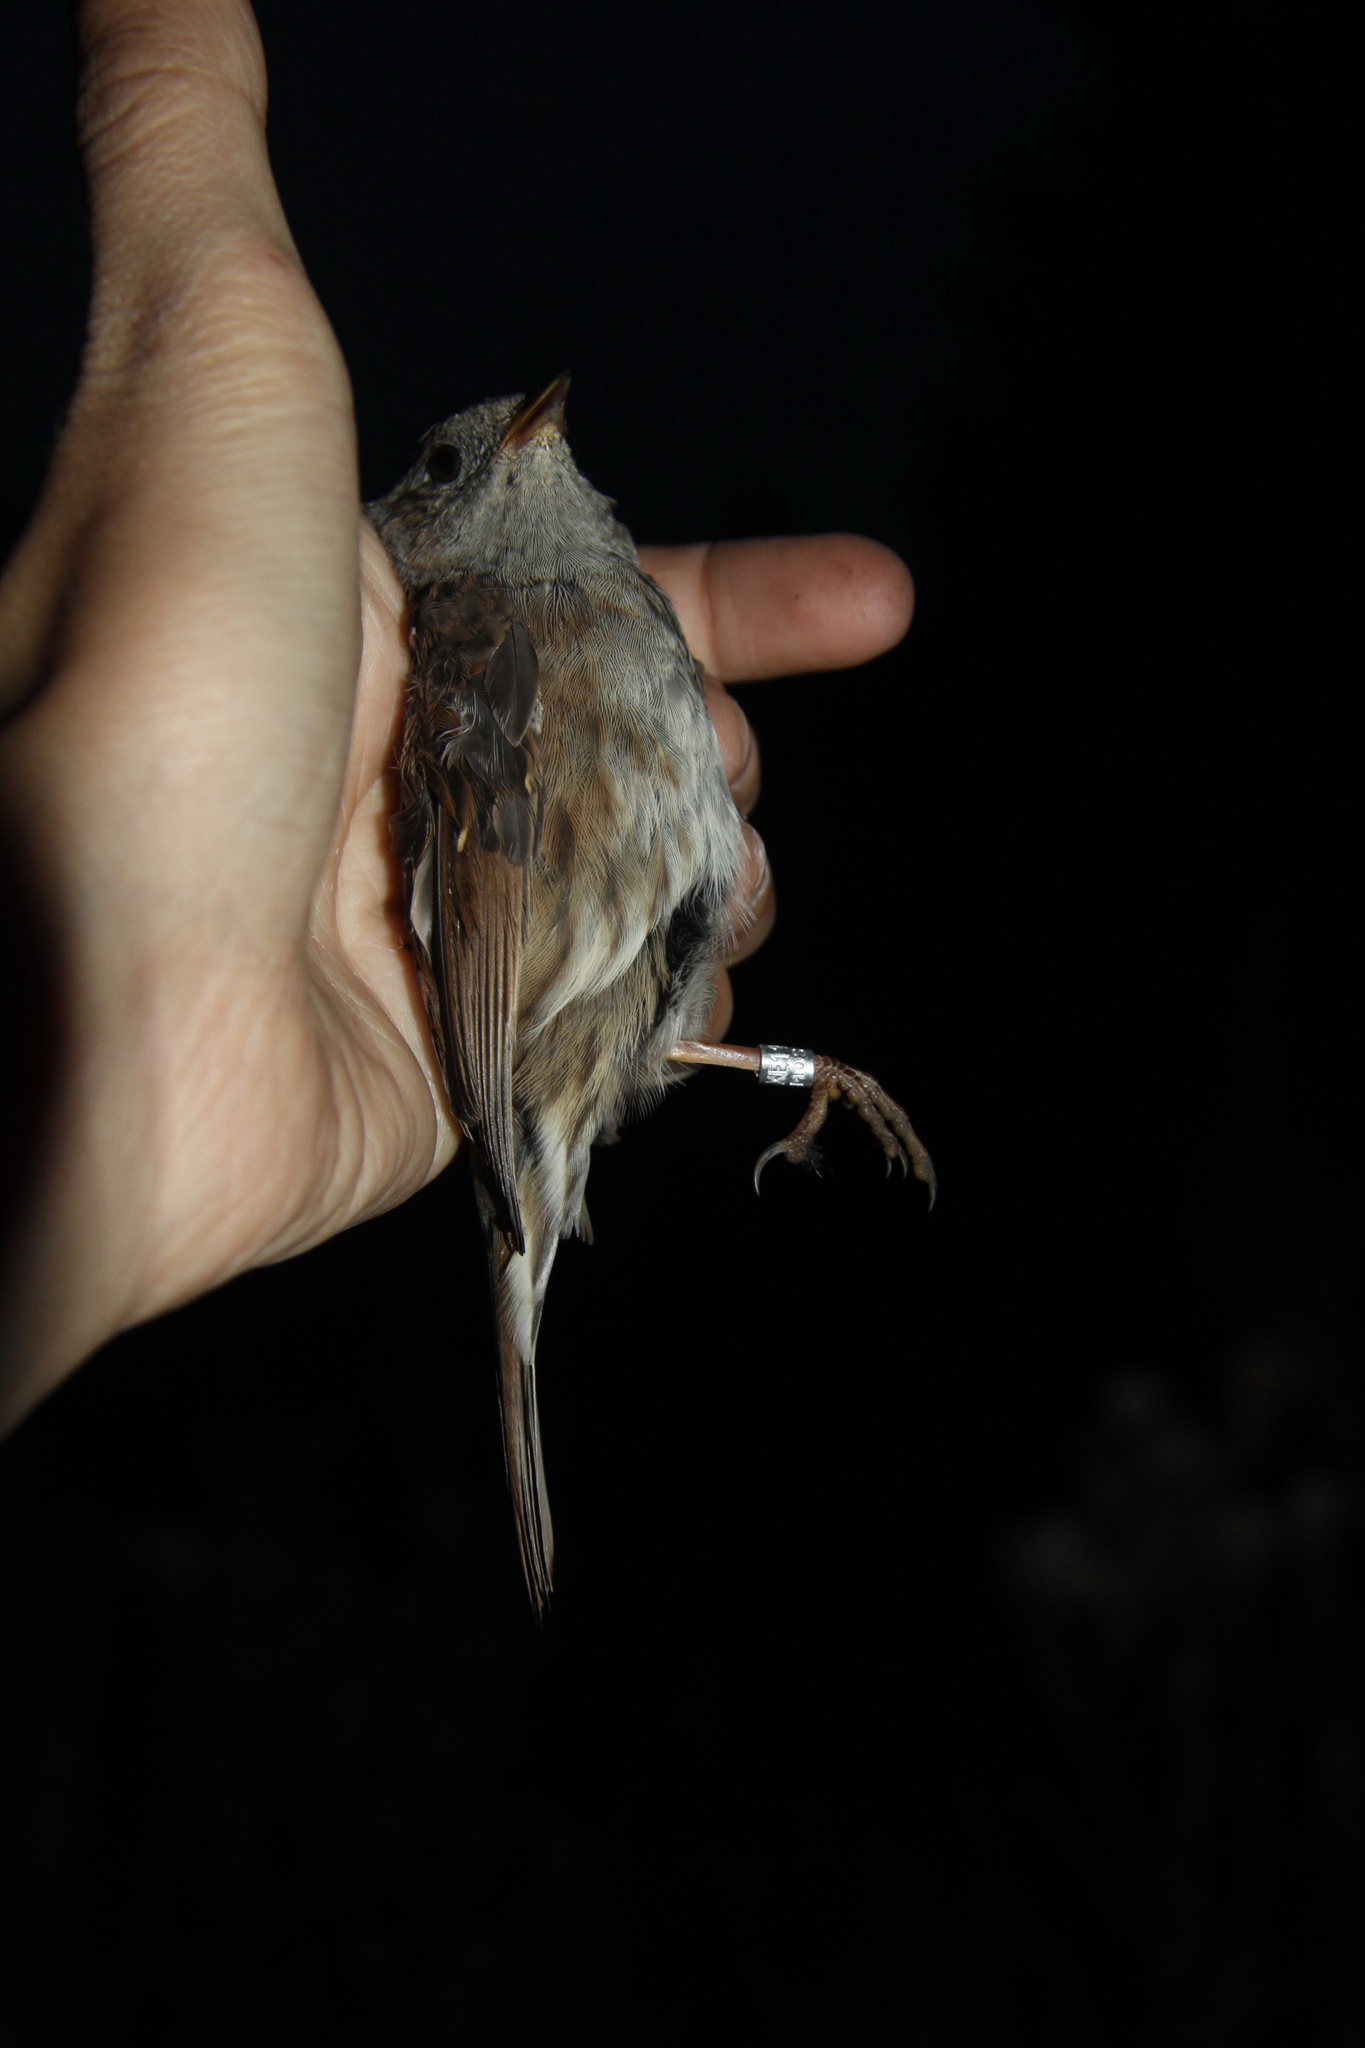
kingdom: Animalia
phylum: Chordata
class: Aves
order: Passeriformes
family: Prunellidae
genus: Prunella
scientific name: Prunella modularis
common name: Dunnock
